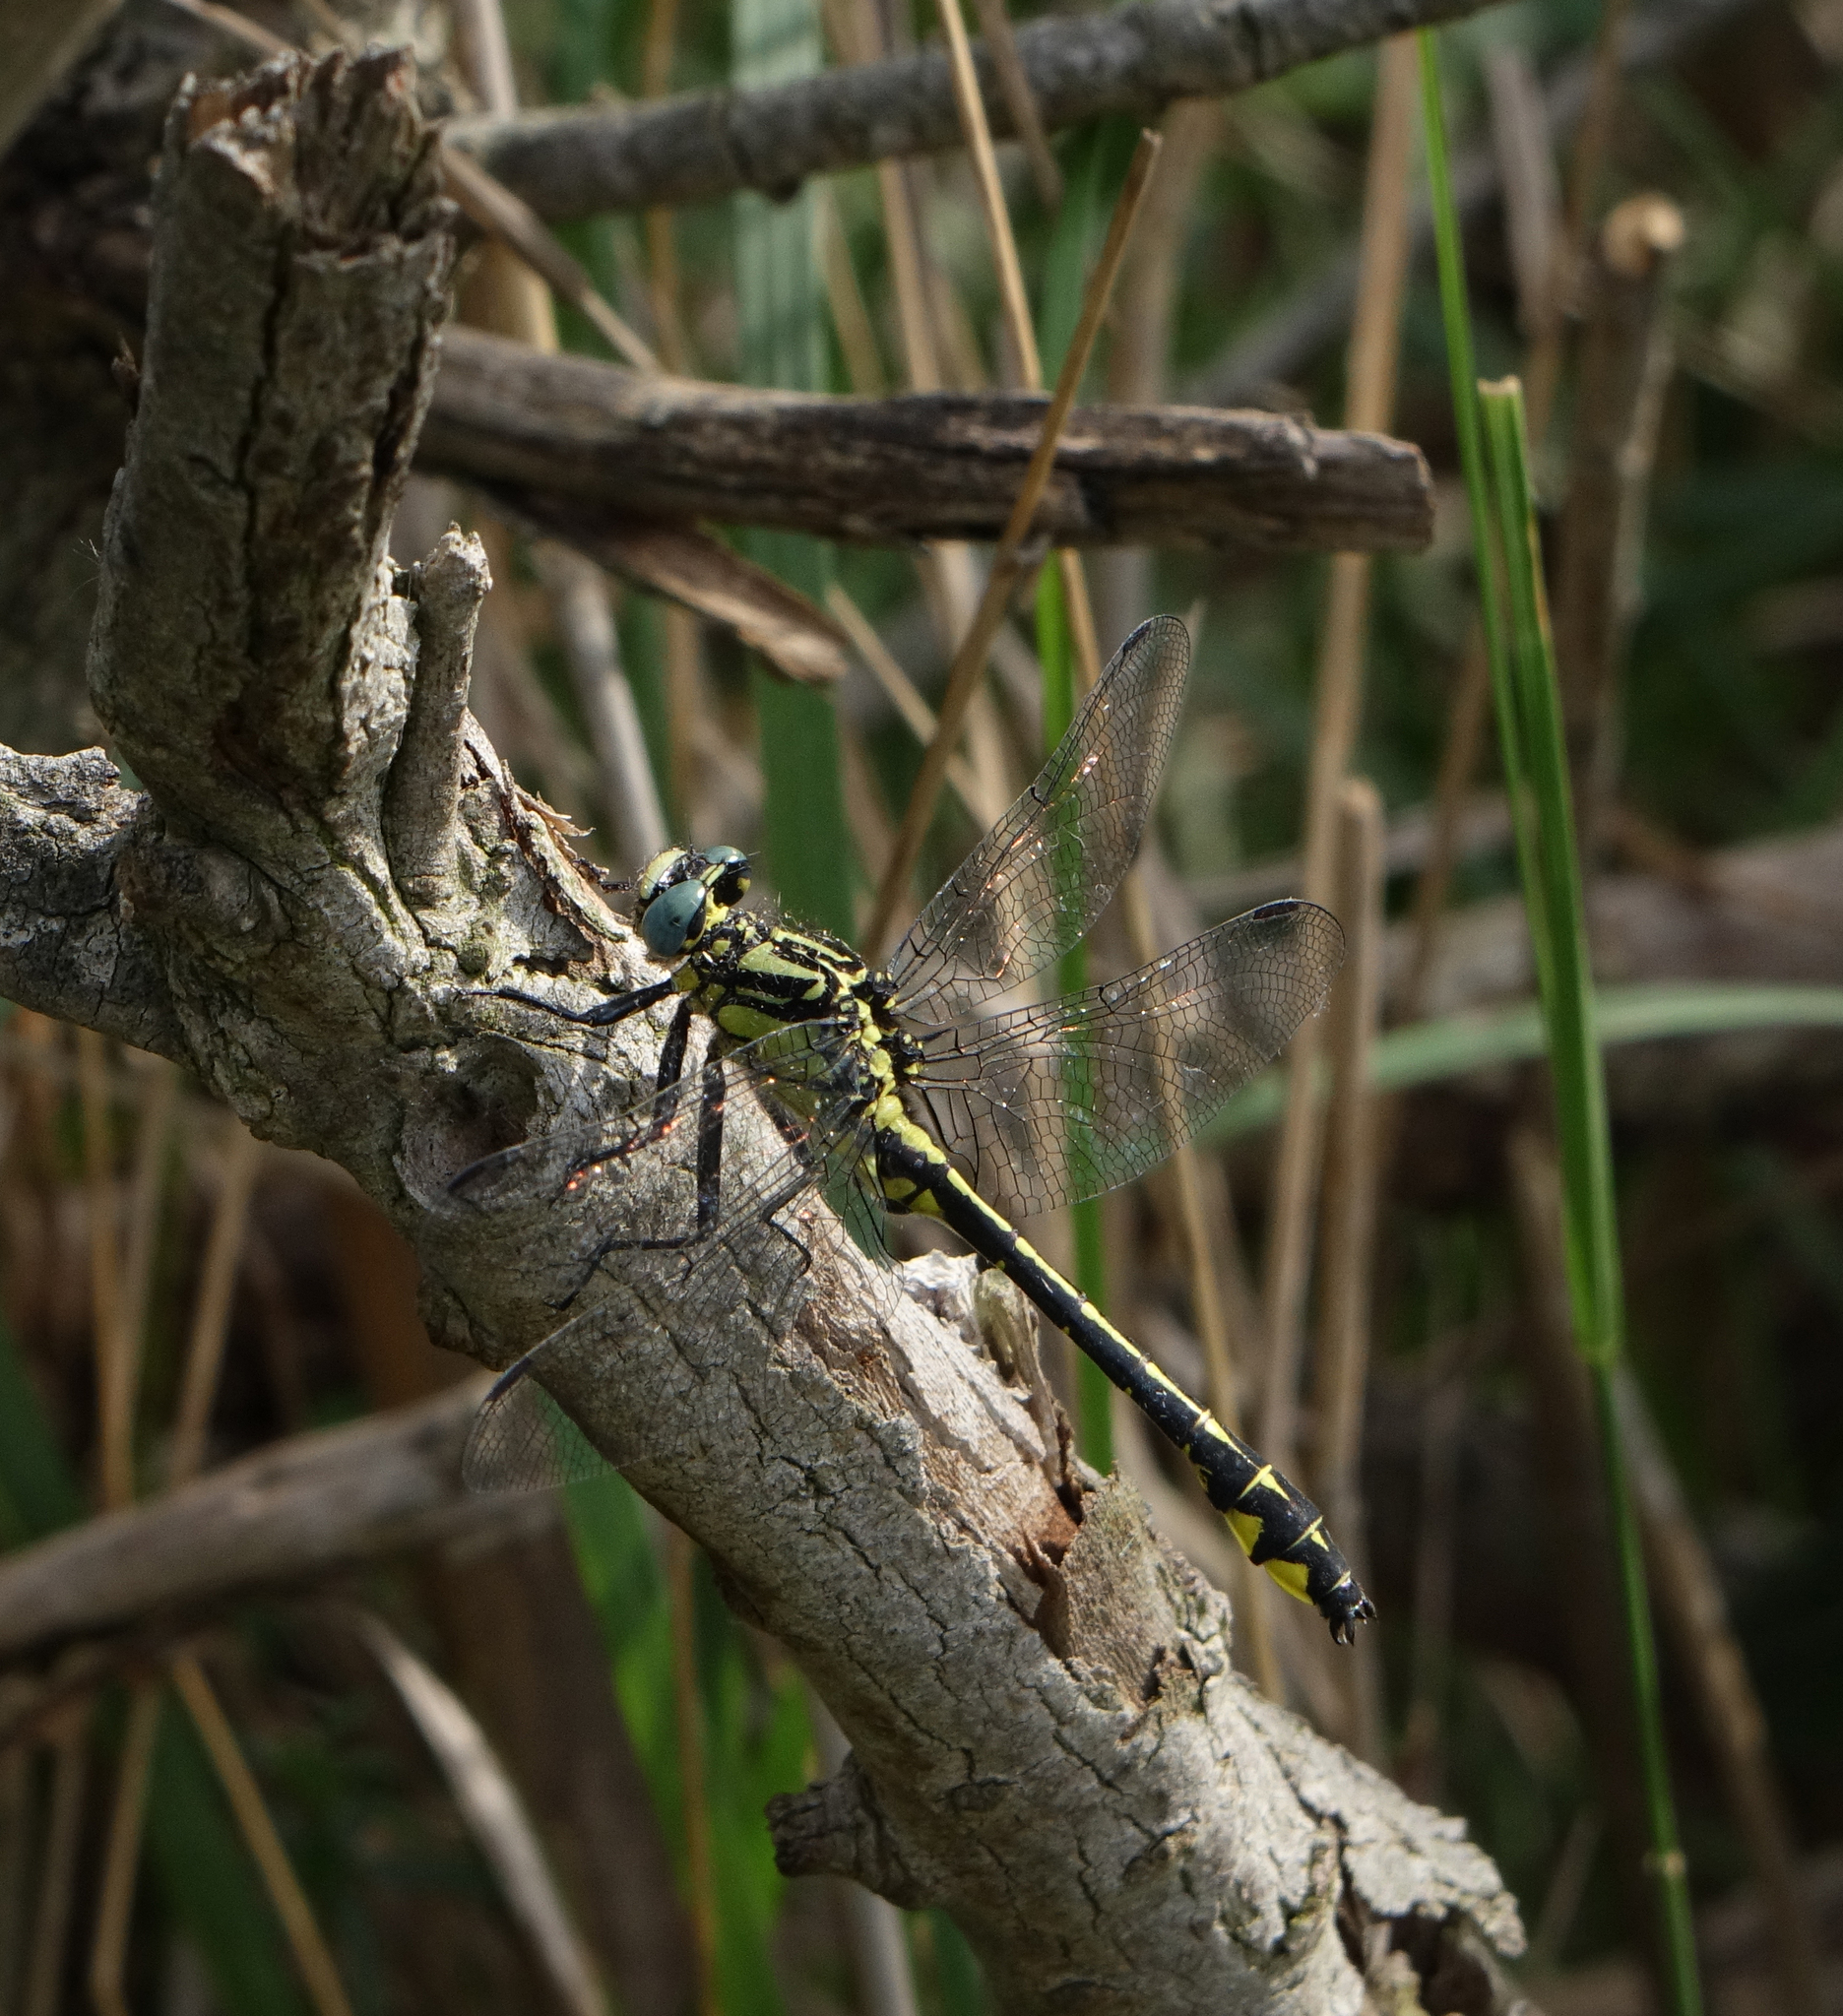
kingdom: Animalia
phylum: Arthropoda
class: Insecta
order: Odonata
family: Gomphidae
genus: Gomphus
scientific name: Gomphus schneiderii
